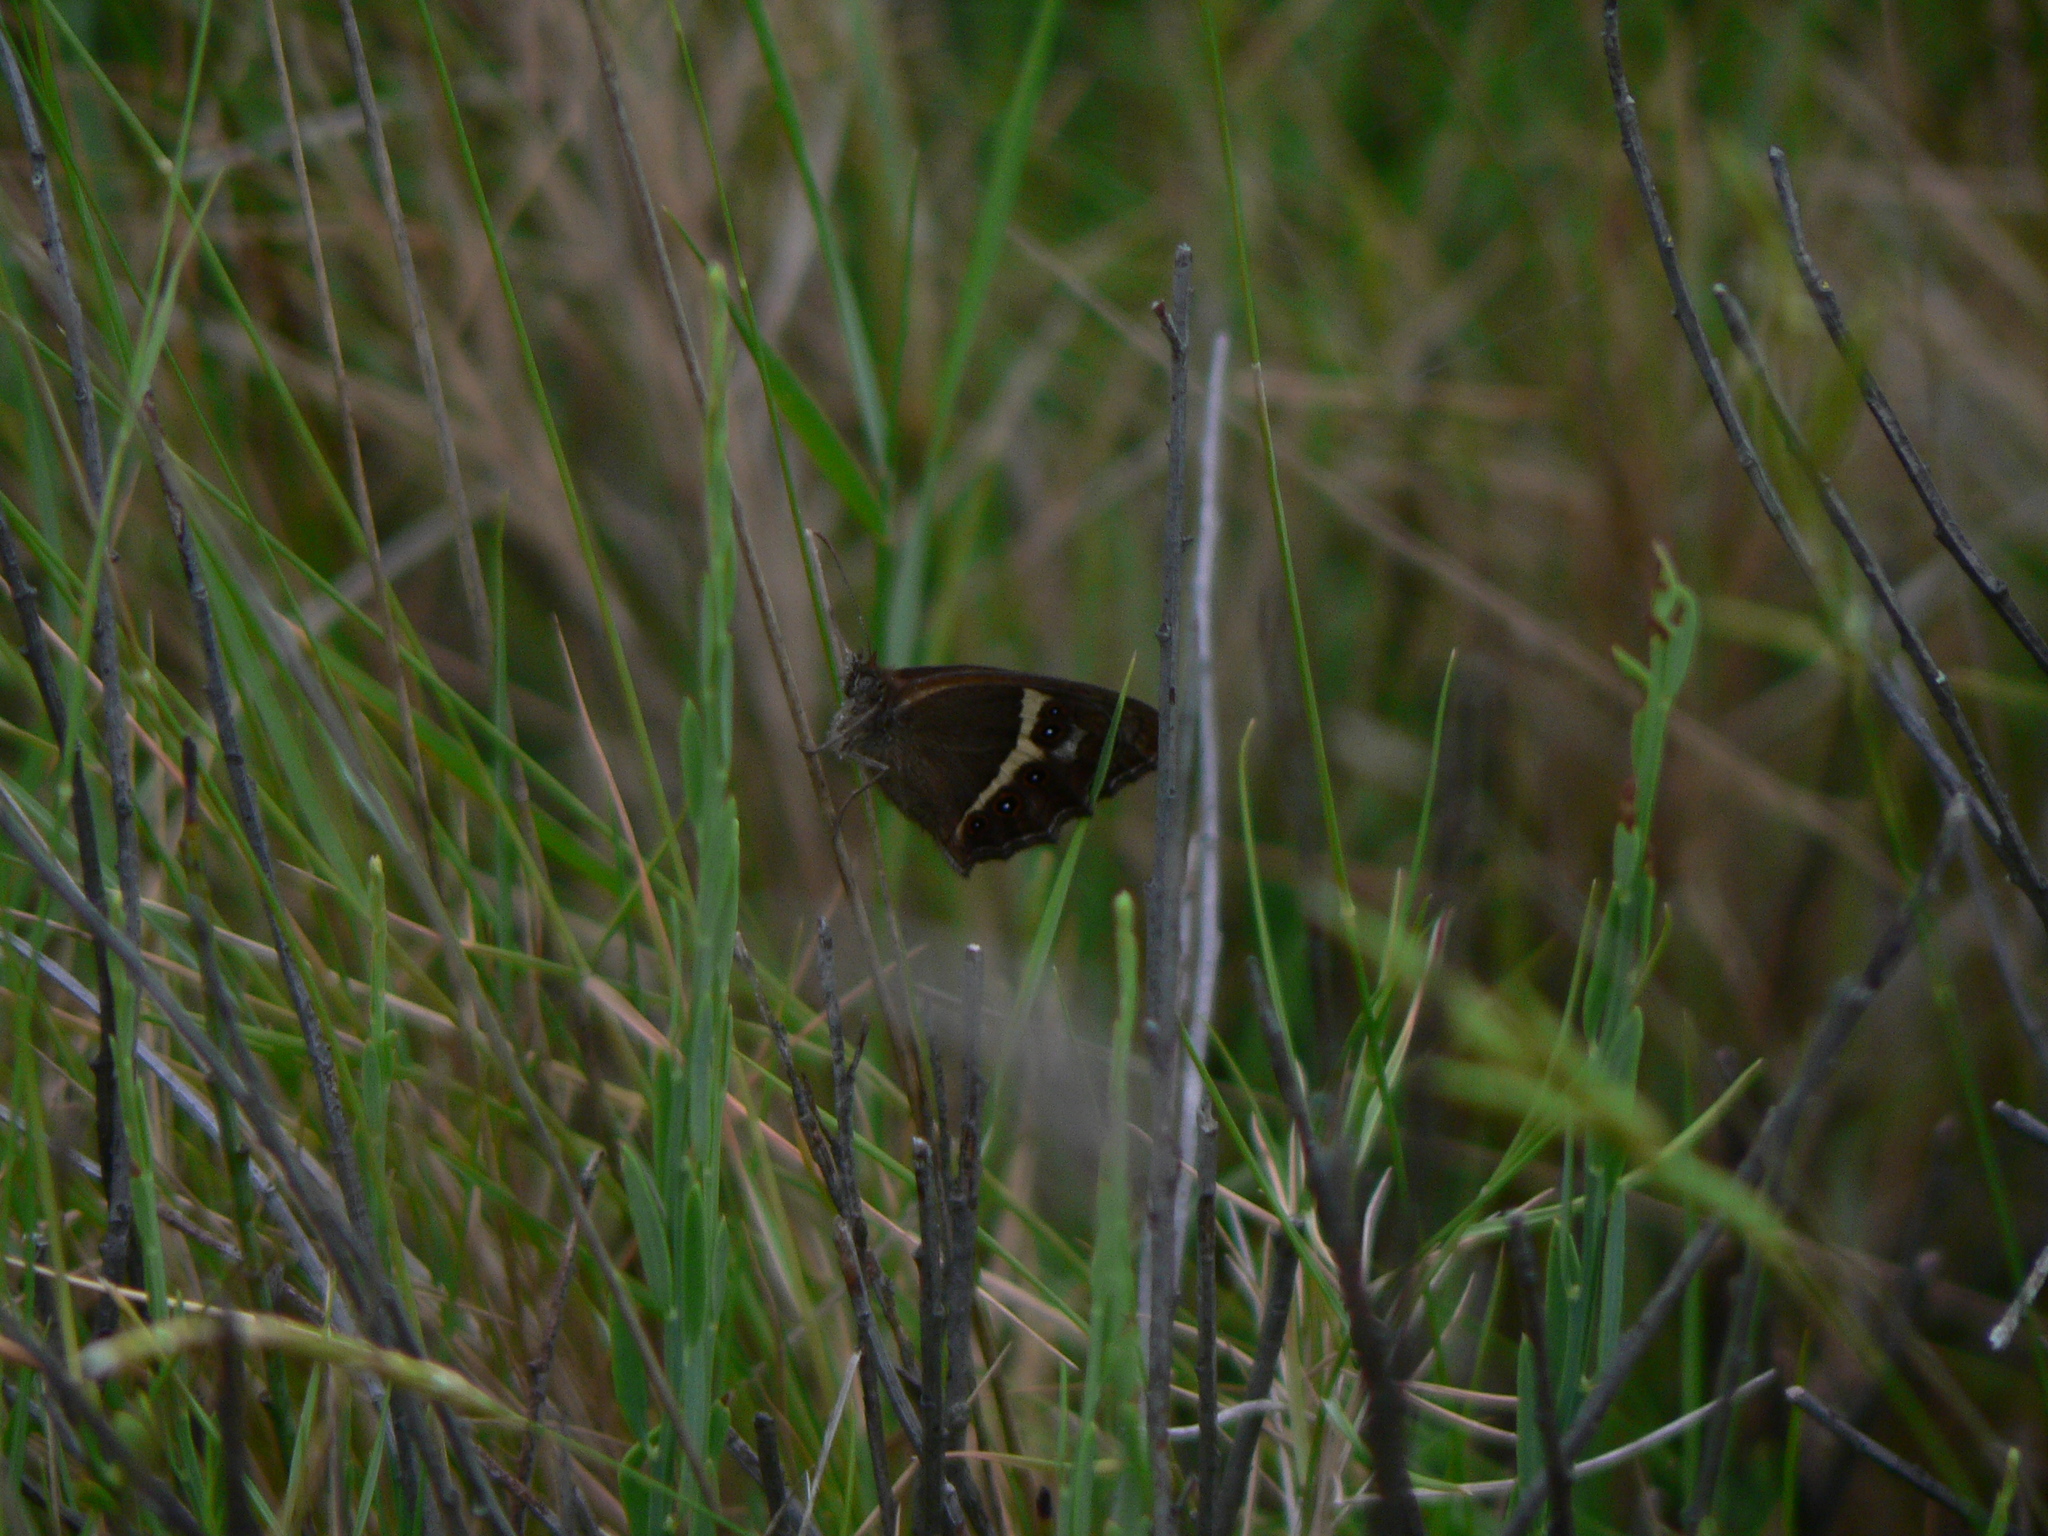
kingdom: Animalia
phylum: Arthropoda
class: Insecta
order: Lepidoptera
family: Nymphalidae
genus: Pyronia
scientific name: Pyronia bathseba
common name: Spanish gatekeeper
